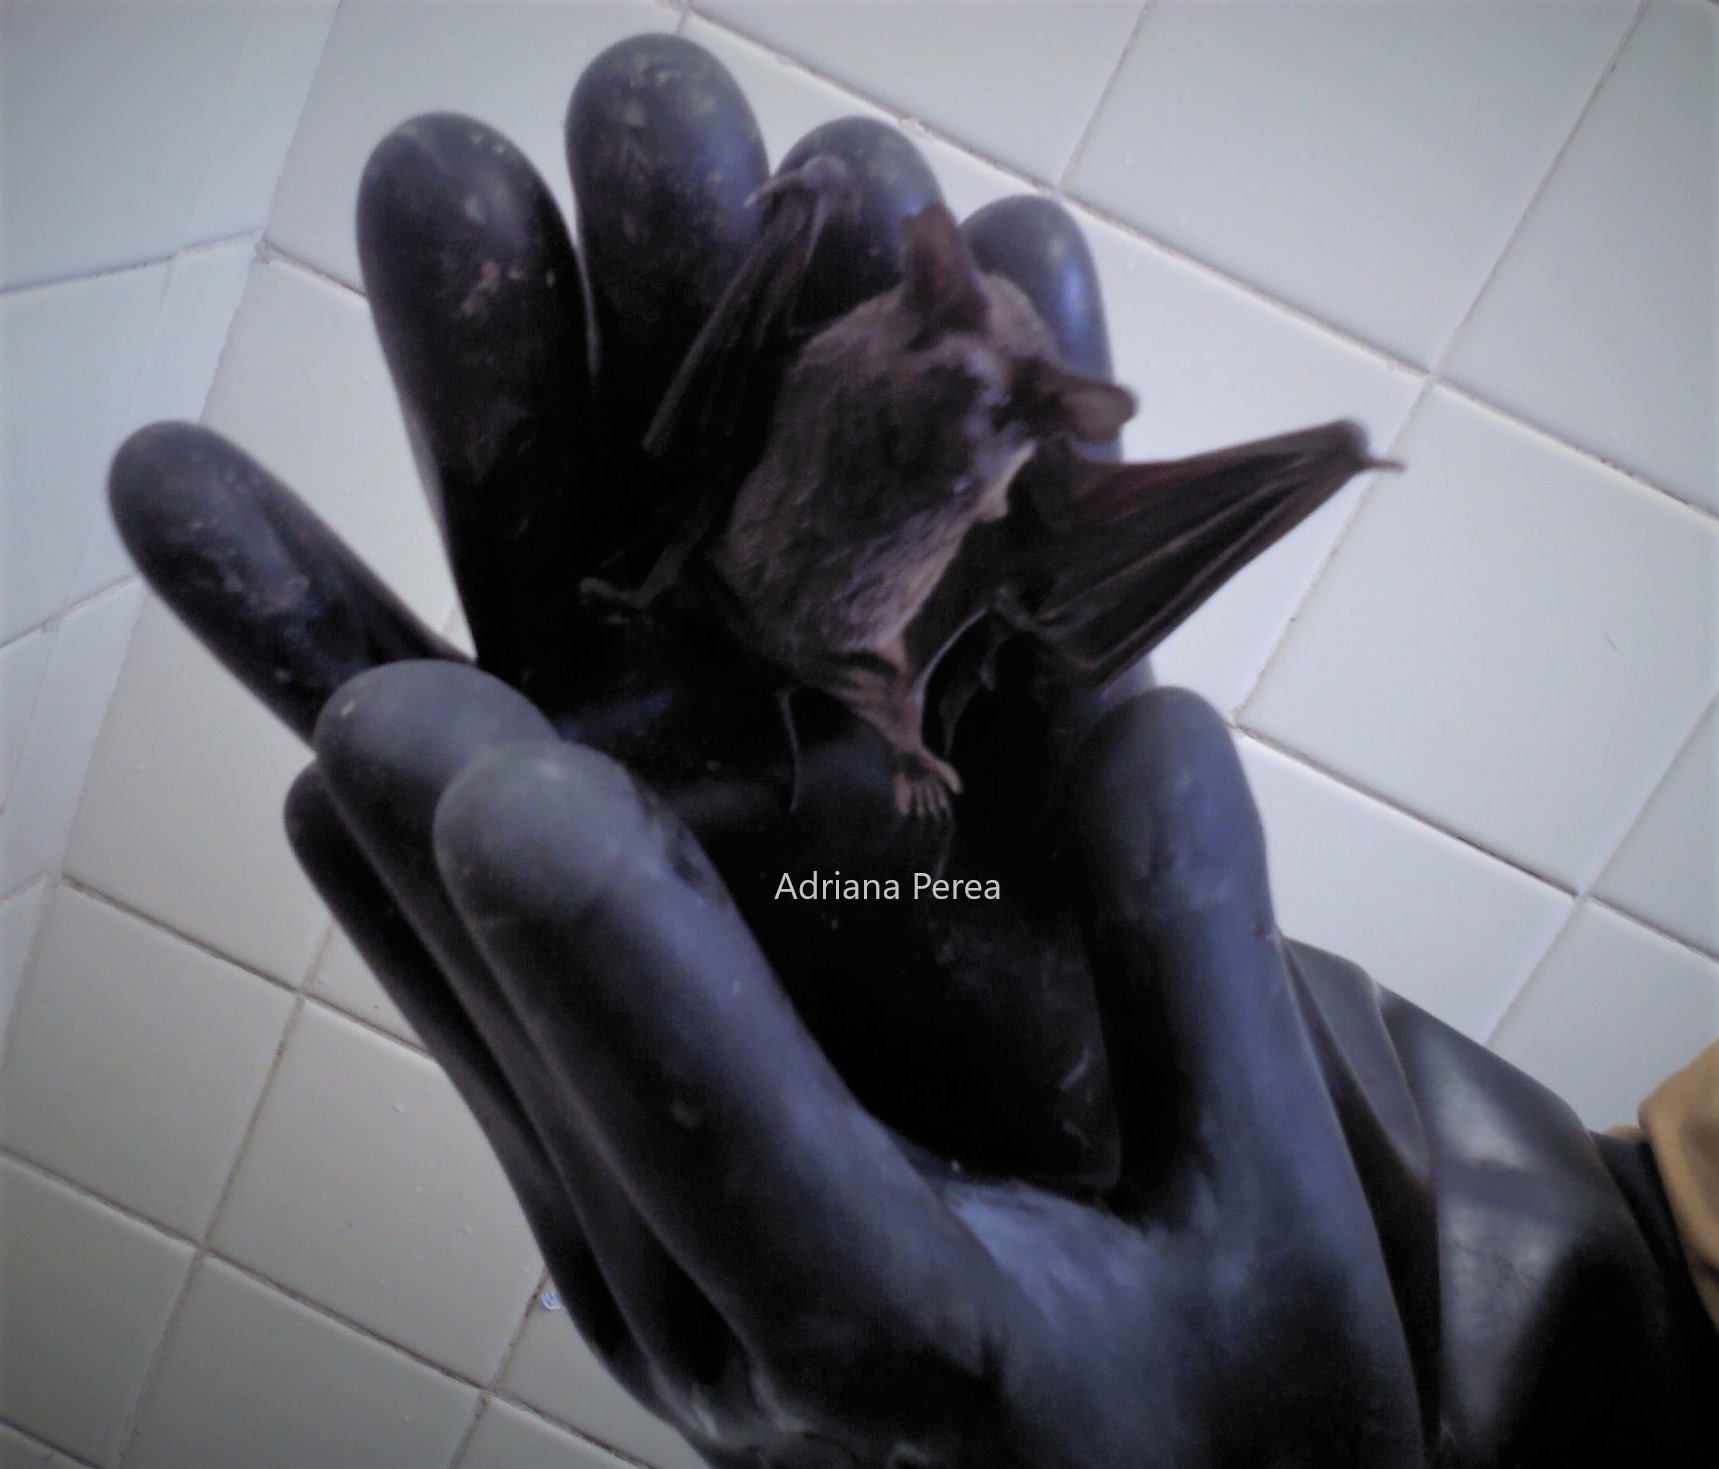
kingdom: Animalia
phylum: Chordata
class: Mammalia
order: Chiroptera
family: Molossidae
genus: Tadarida
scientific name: Tadarida brasiliensis
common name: Mexican free-tailed bat
